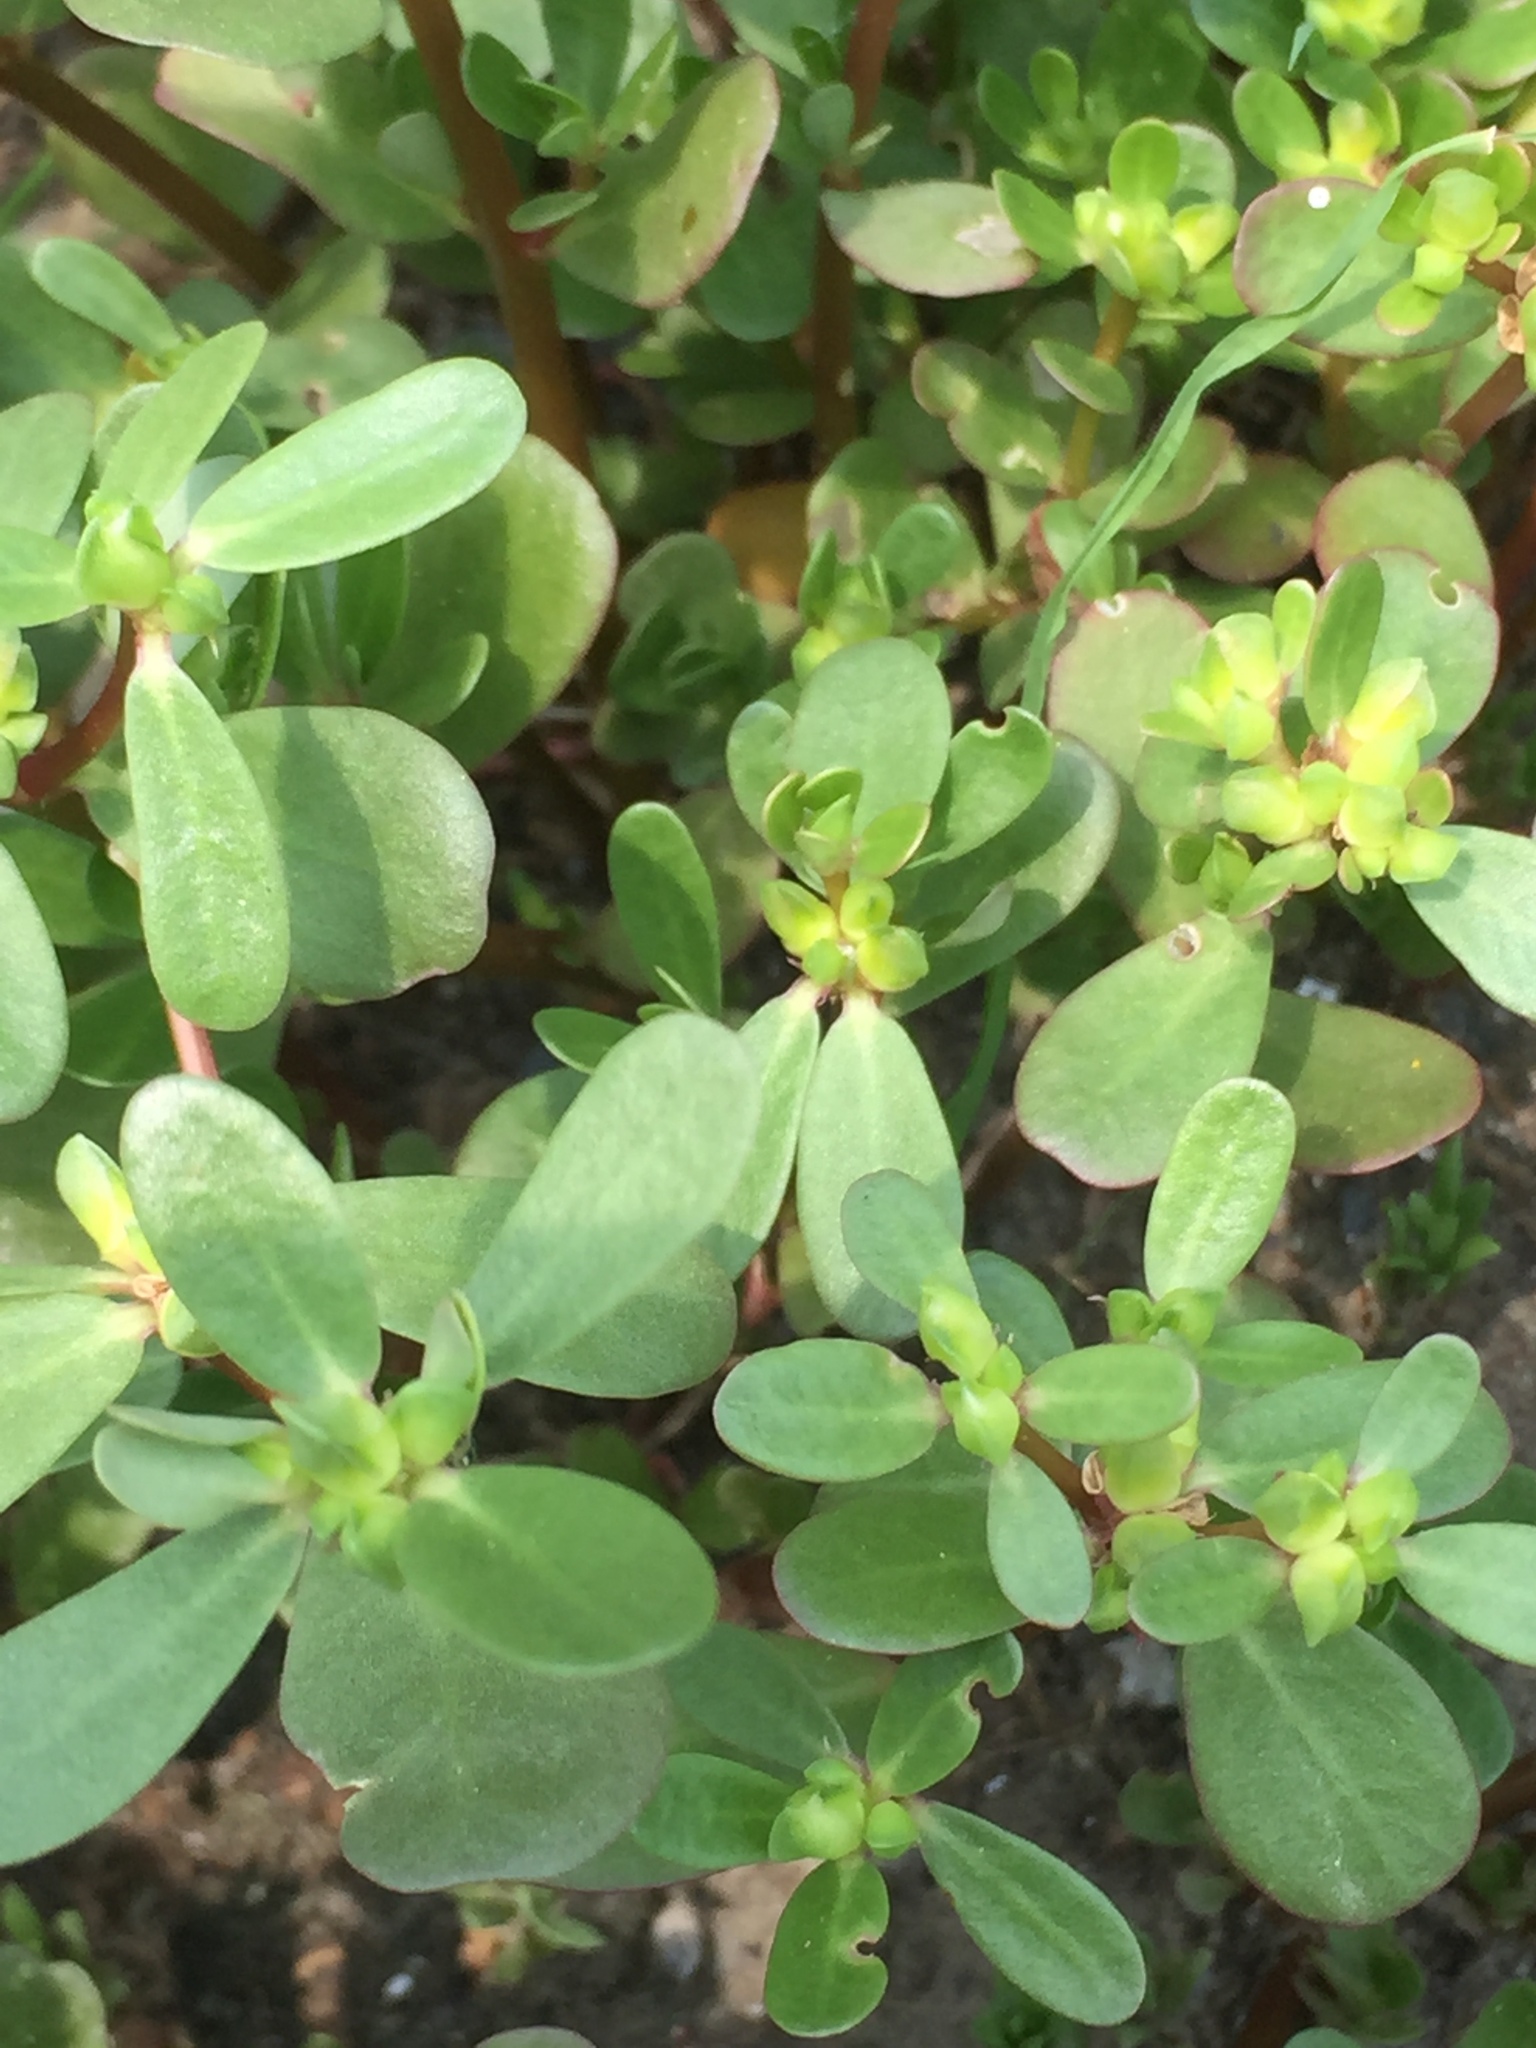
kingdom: Plantae
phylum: Tracheophyta
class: Magnoliopsida
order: Caryophyllales
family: Portulacaceae
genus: Portulaca
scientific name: Portulaca oleracea
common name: Common purslane
